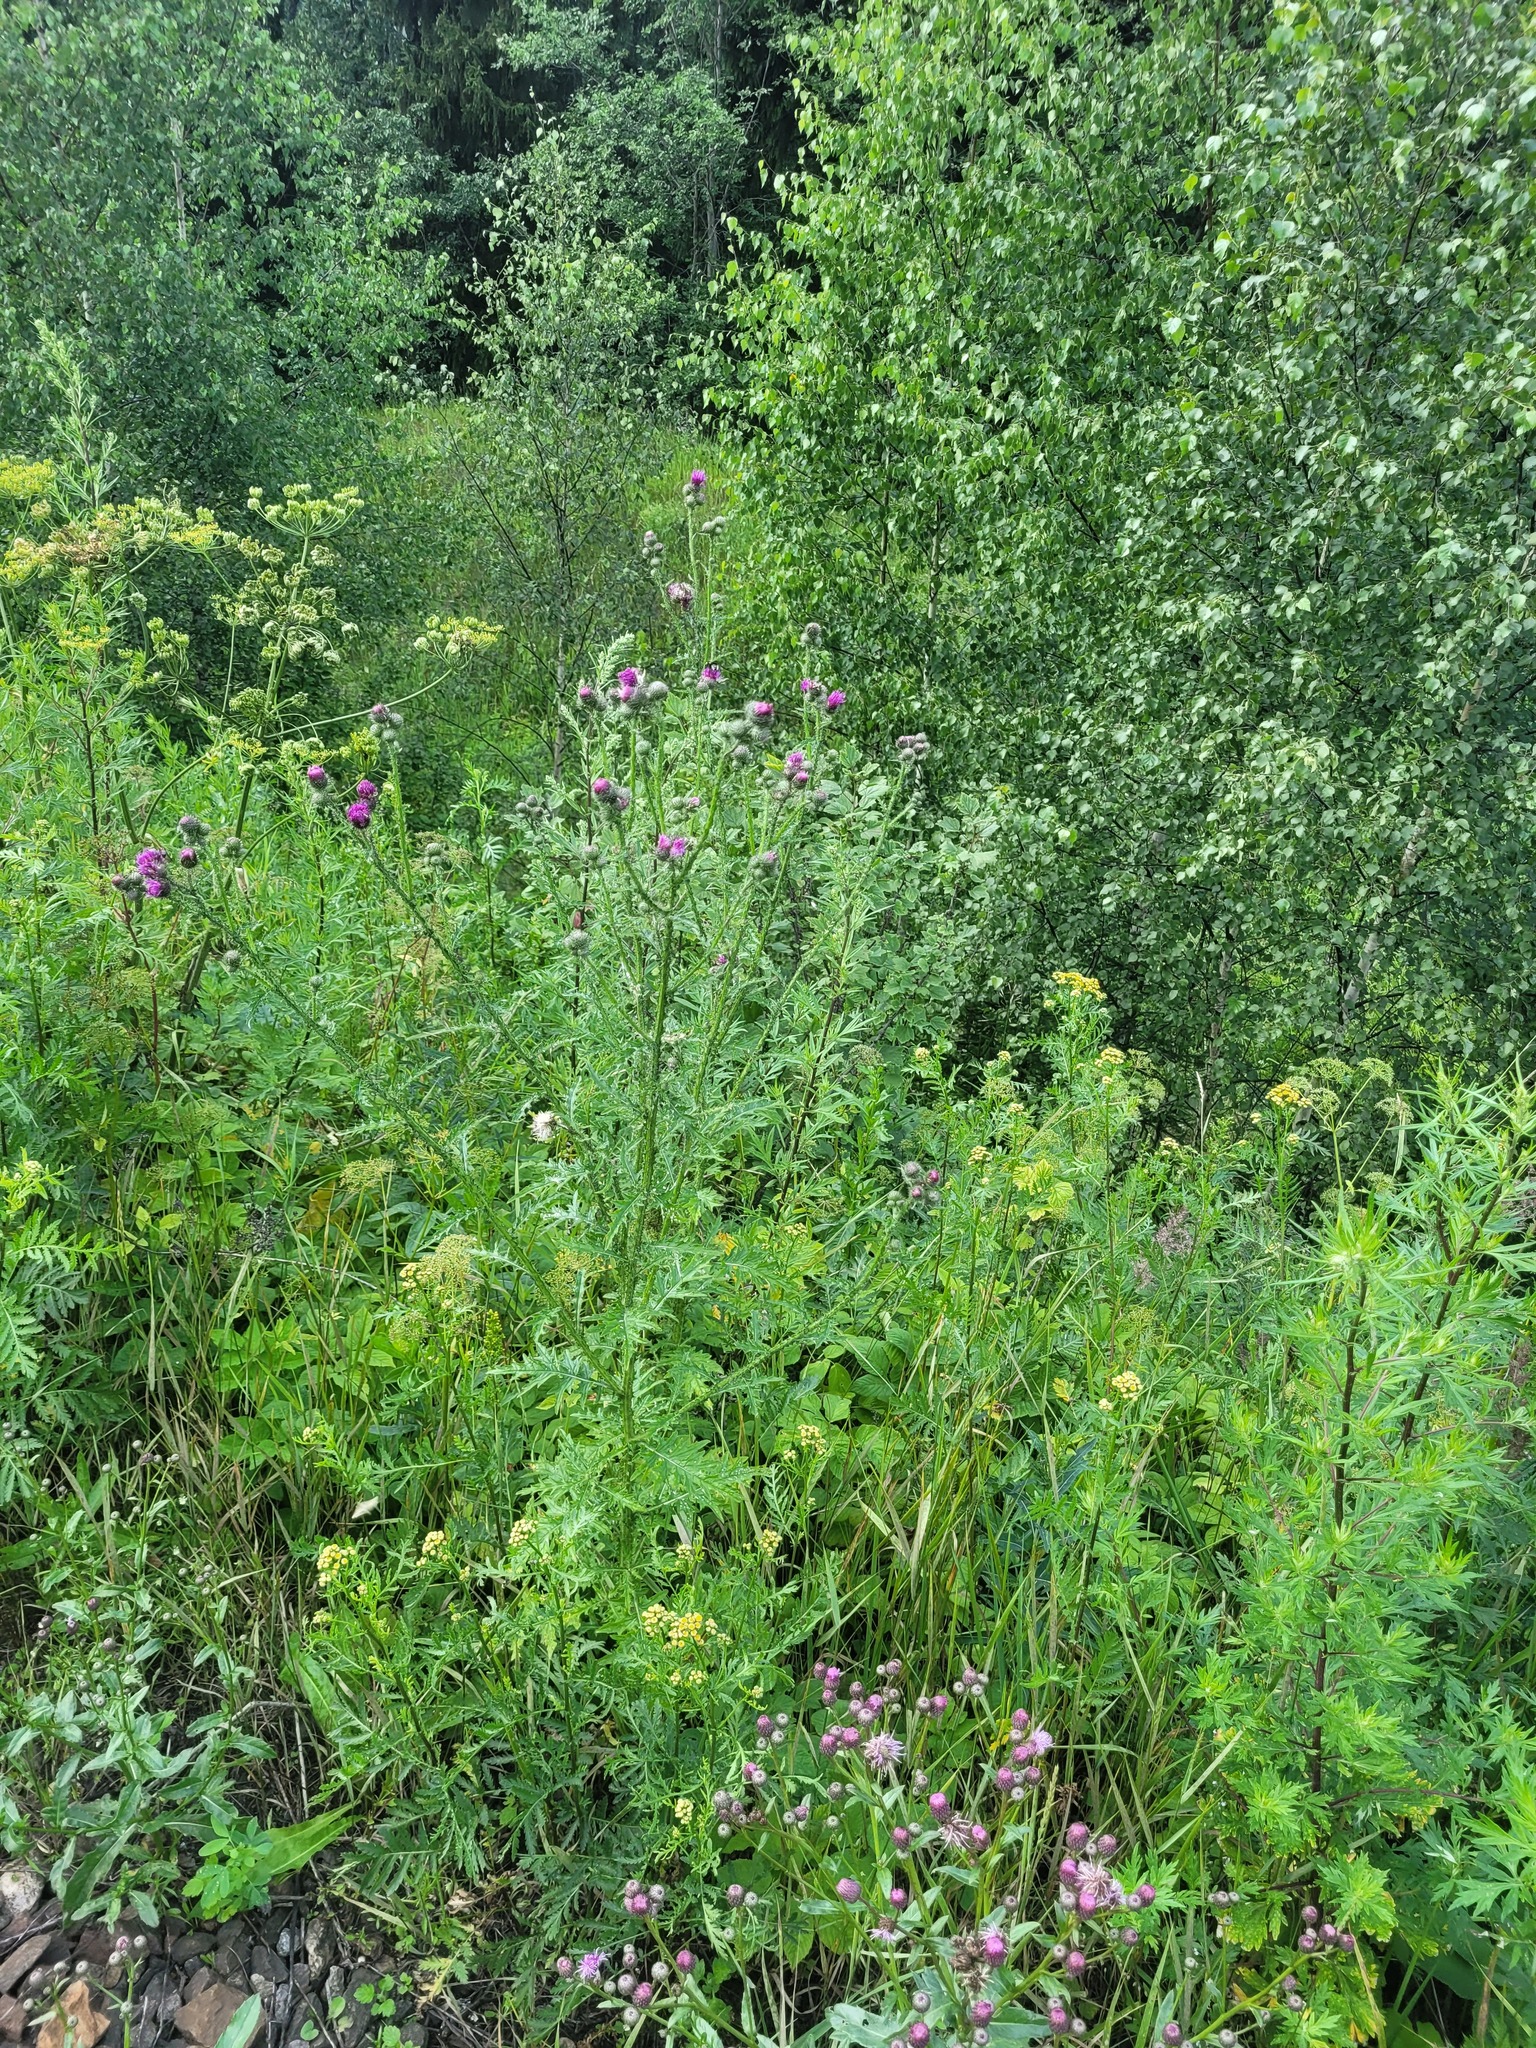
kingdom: Plantae
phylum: Tracheophyta
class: Magnoliopsida
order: Asterales
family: Asteraceae
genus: Carduus
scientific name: Carduus crispus
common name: Welted thistle
